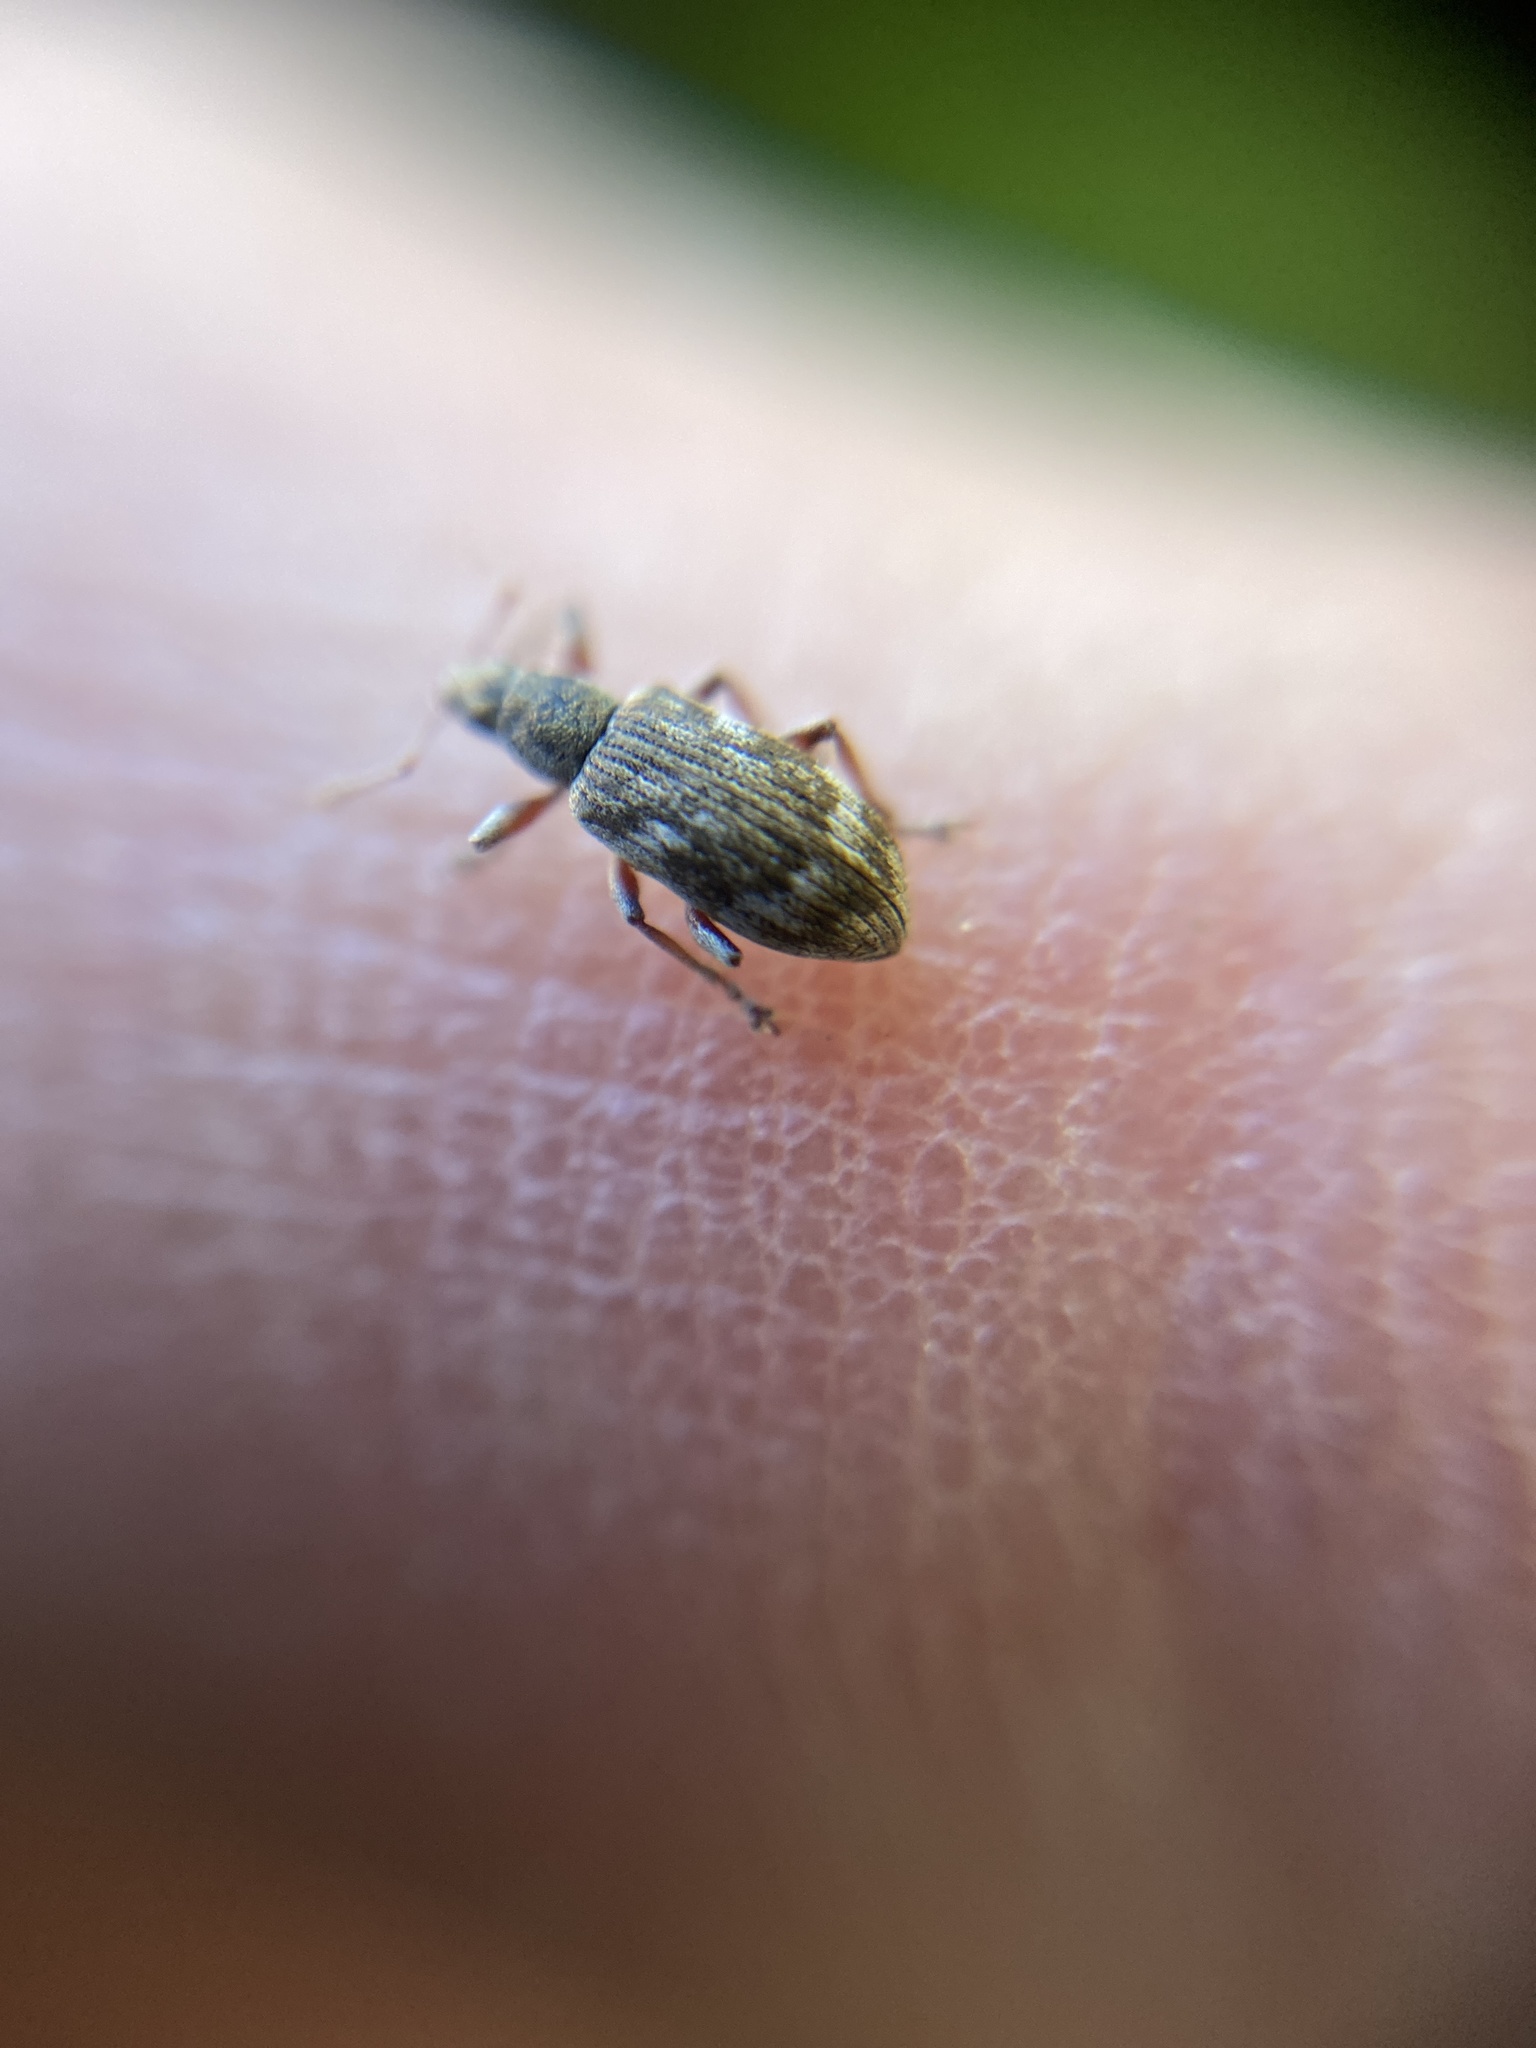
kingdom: Animalia
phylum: Arthropoda
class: Insecta
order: Coleoptera
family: Curculionidae
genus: Polydrusus
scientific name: Polydrusus tereticollis
